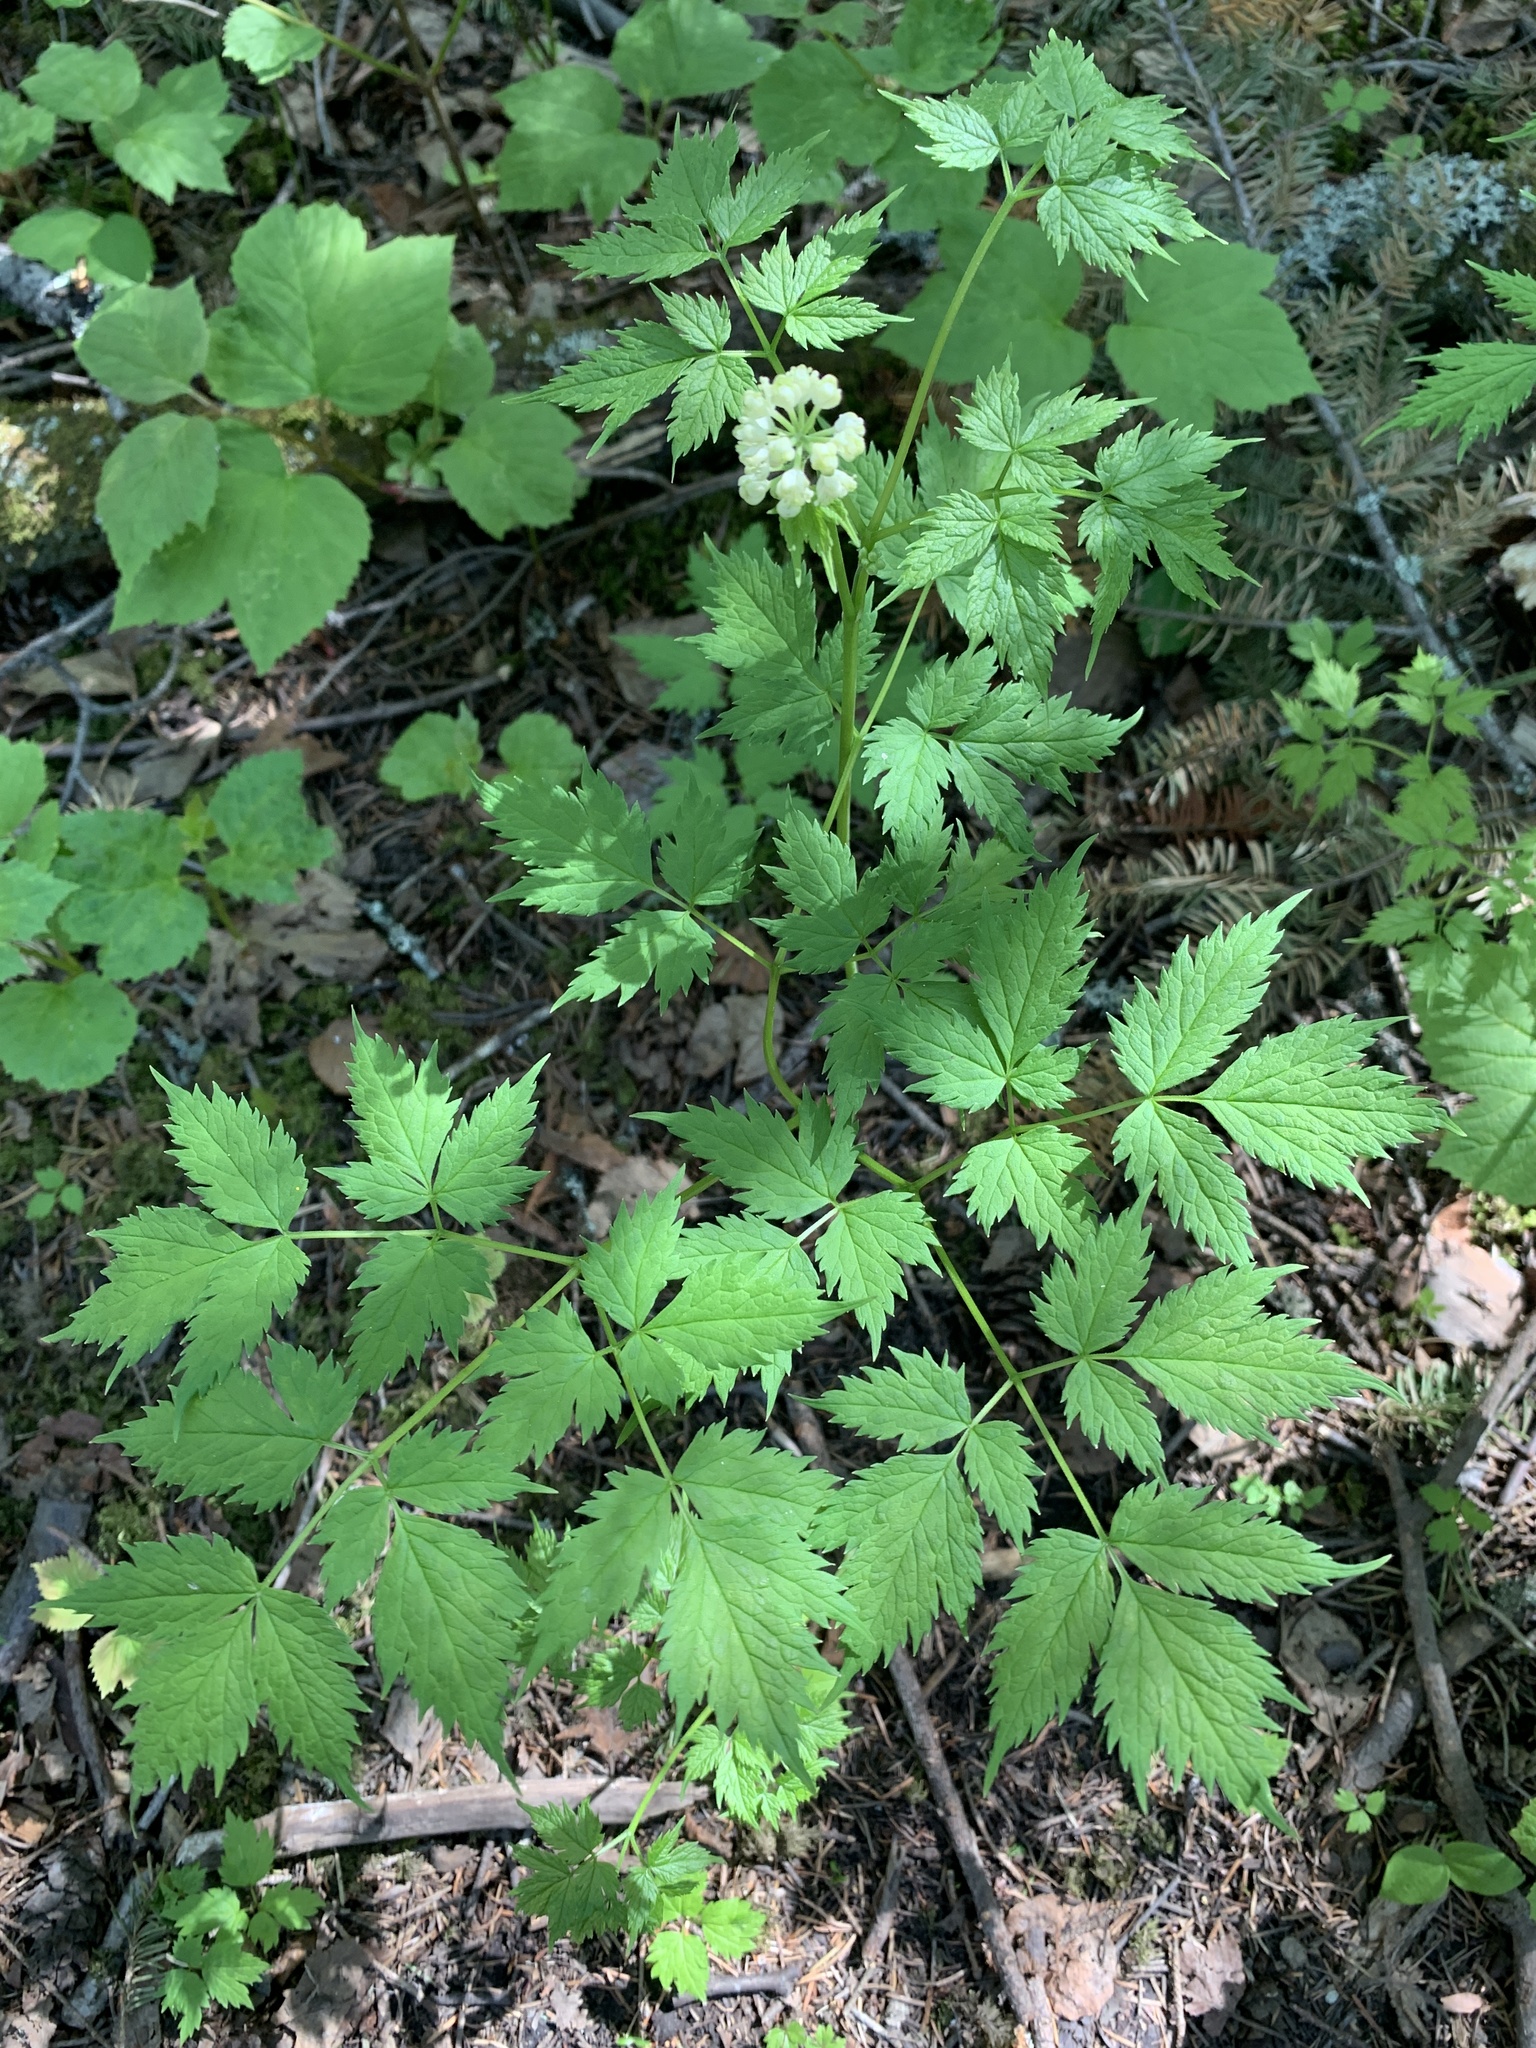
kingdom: Plantae
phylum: Tracheophyta
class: Magnoliopsida
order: Ranunculales
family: Ranunculaceae
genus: Actaea
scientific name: Actaea rubra
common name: Red baneberry
